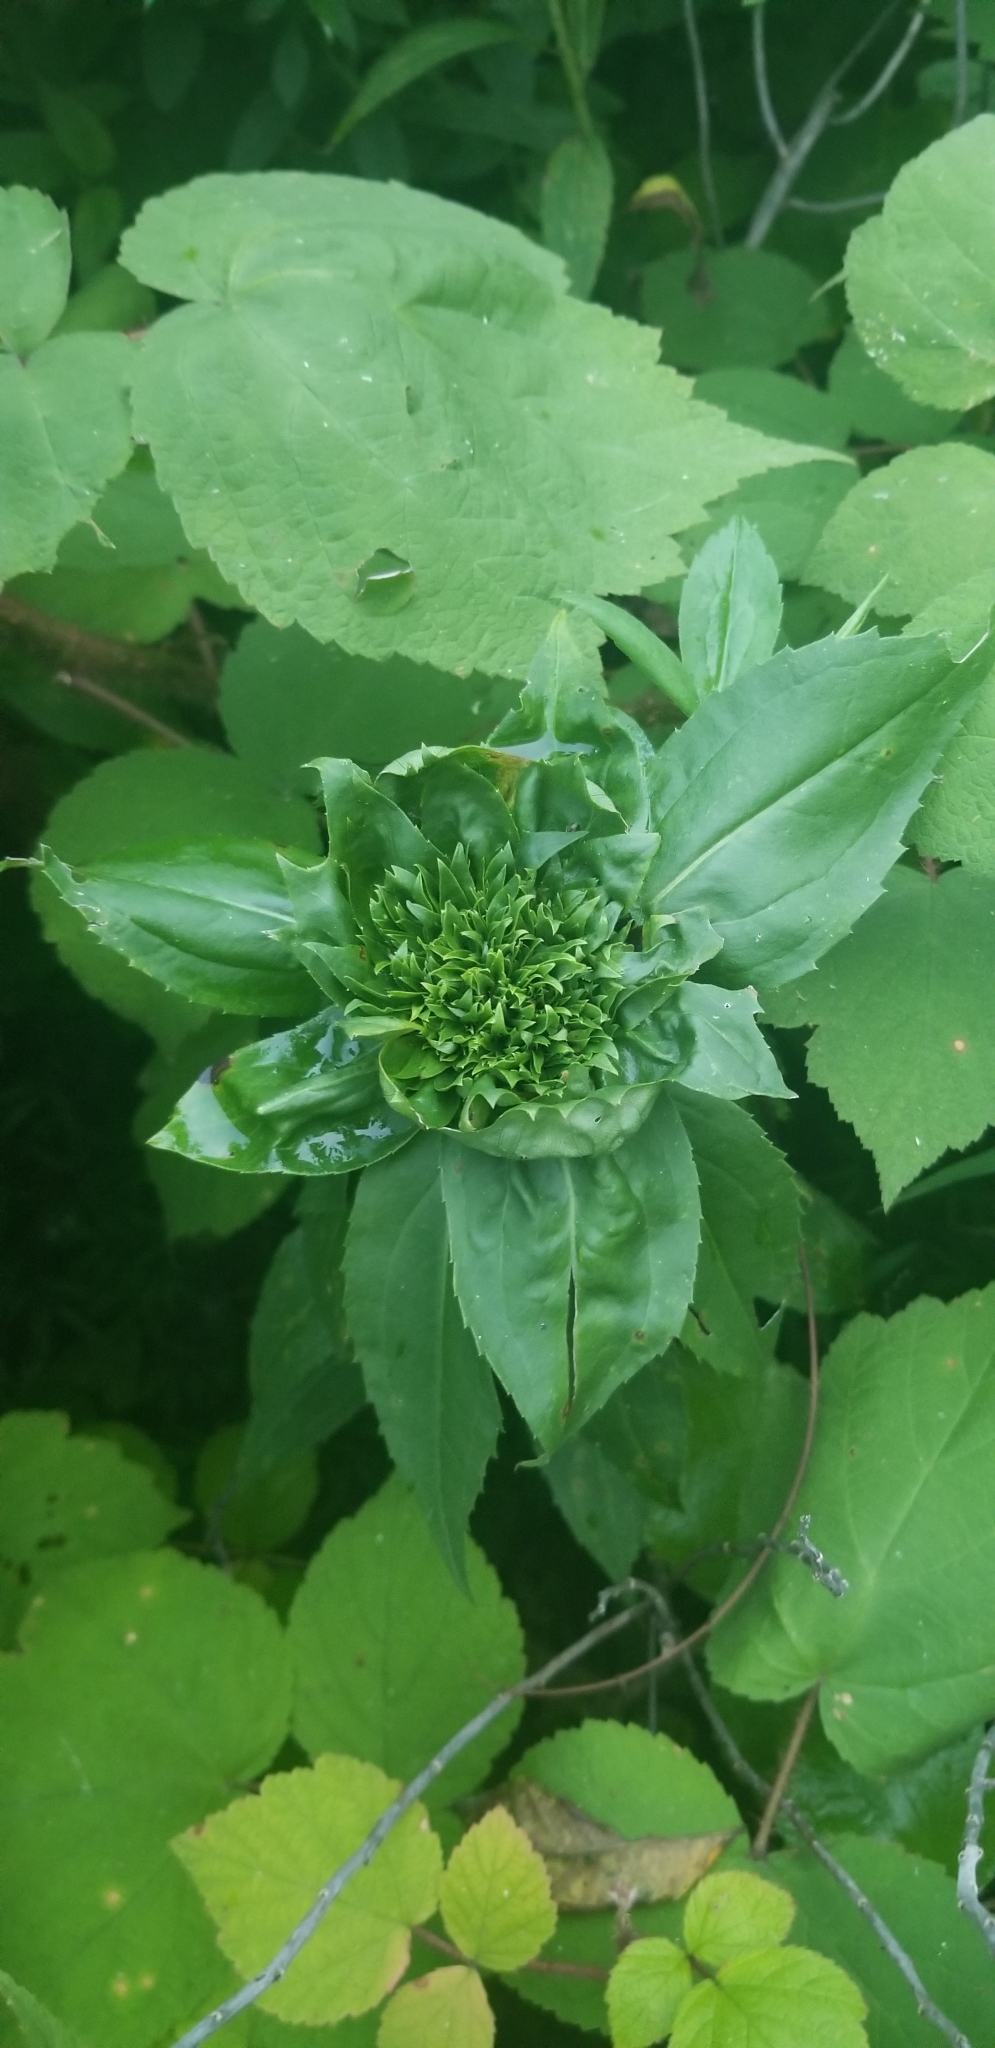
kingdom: Animalia
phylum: Arthropoda
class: Insecta
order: Diptera
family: Cecidomyiidae
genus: Rhopalomyia
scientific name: Rhopalomyia capitata
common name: Giant goldenrod bunch gall midge
